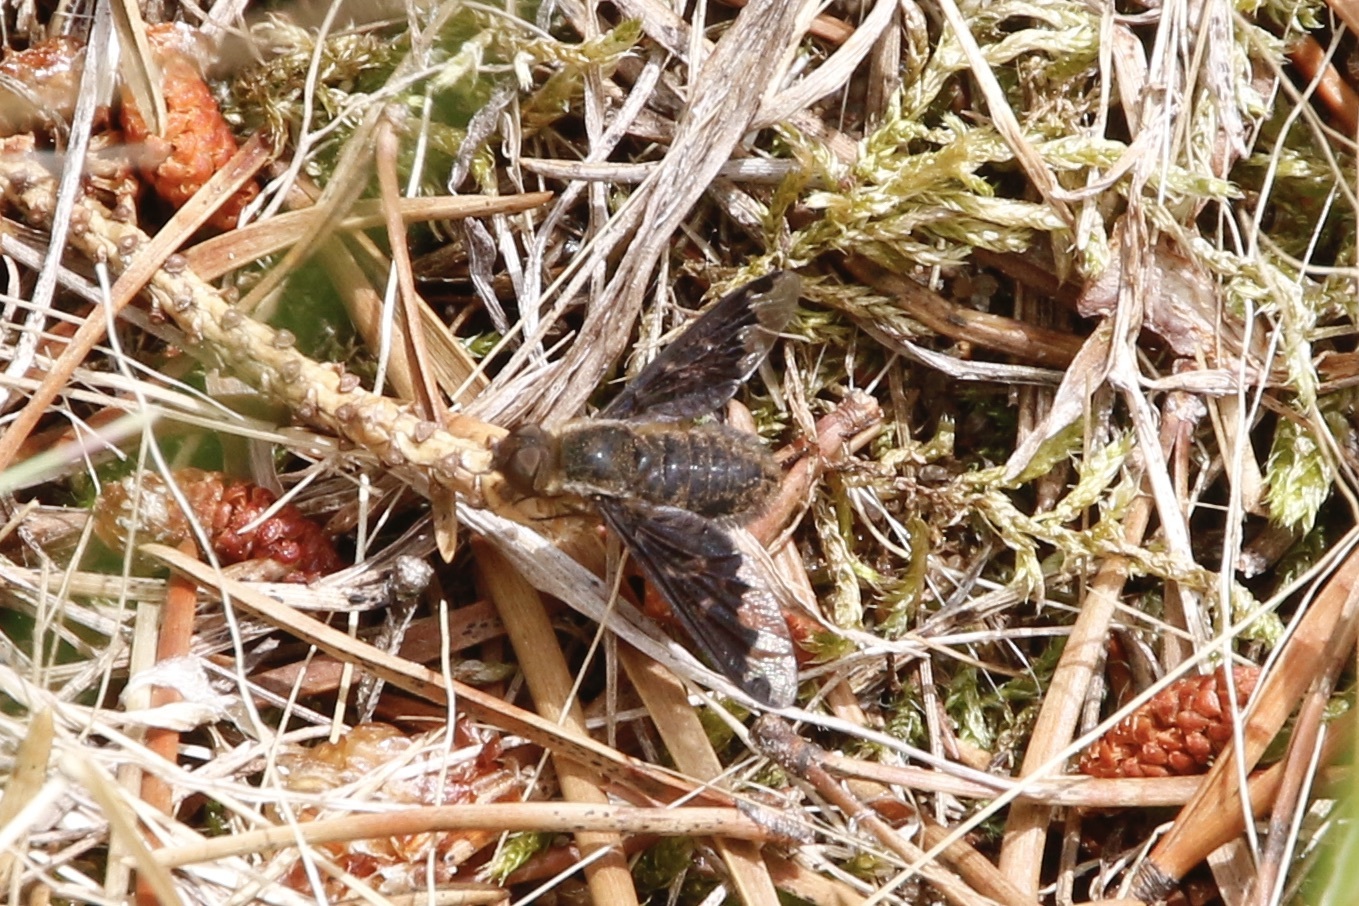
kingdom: Animalia
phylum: Arthropoda
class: Insecta
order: Diptera
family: Bombyliidae
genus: Hemipenthes
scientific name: Hemipenthes sinuosus
